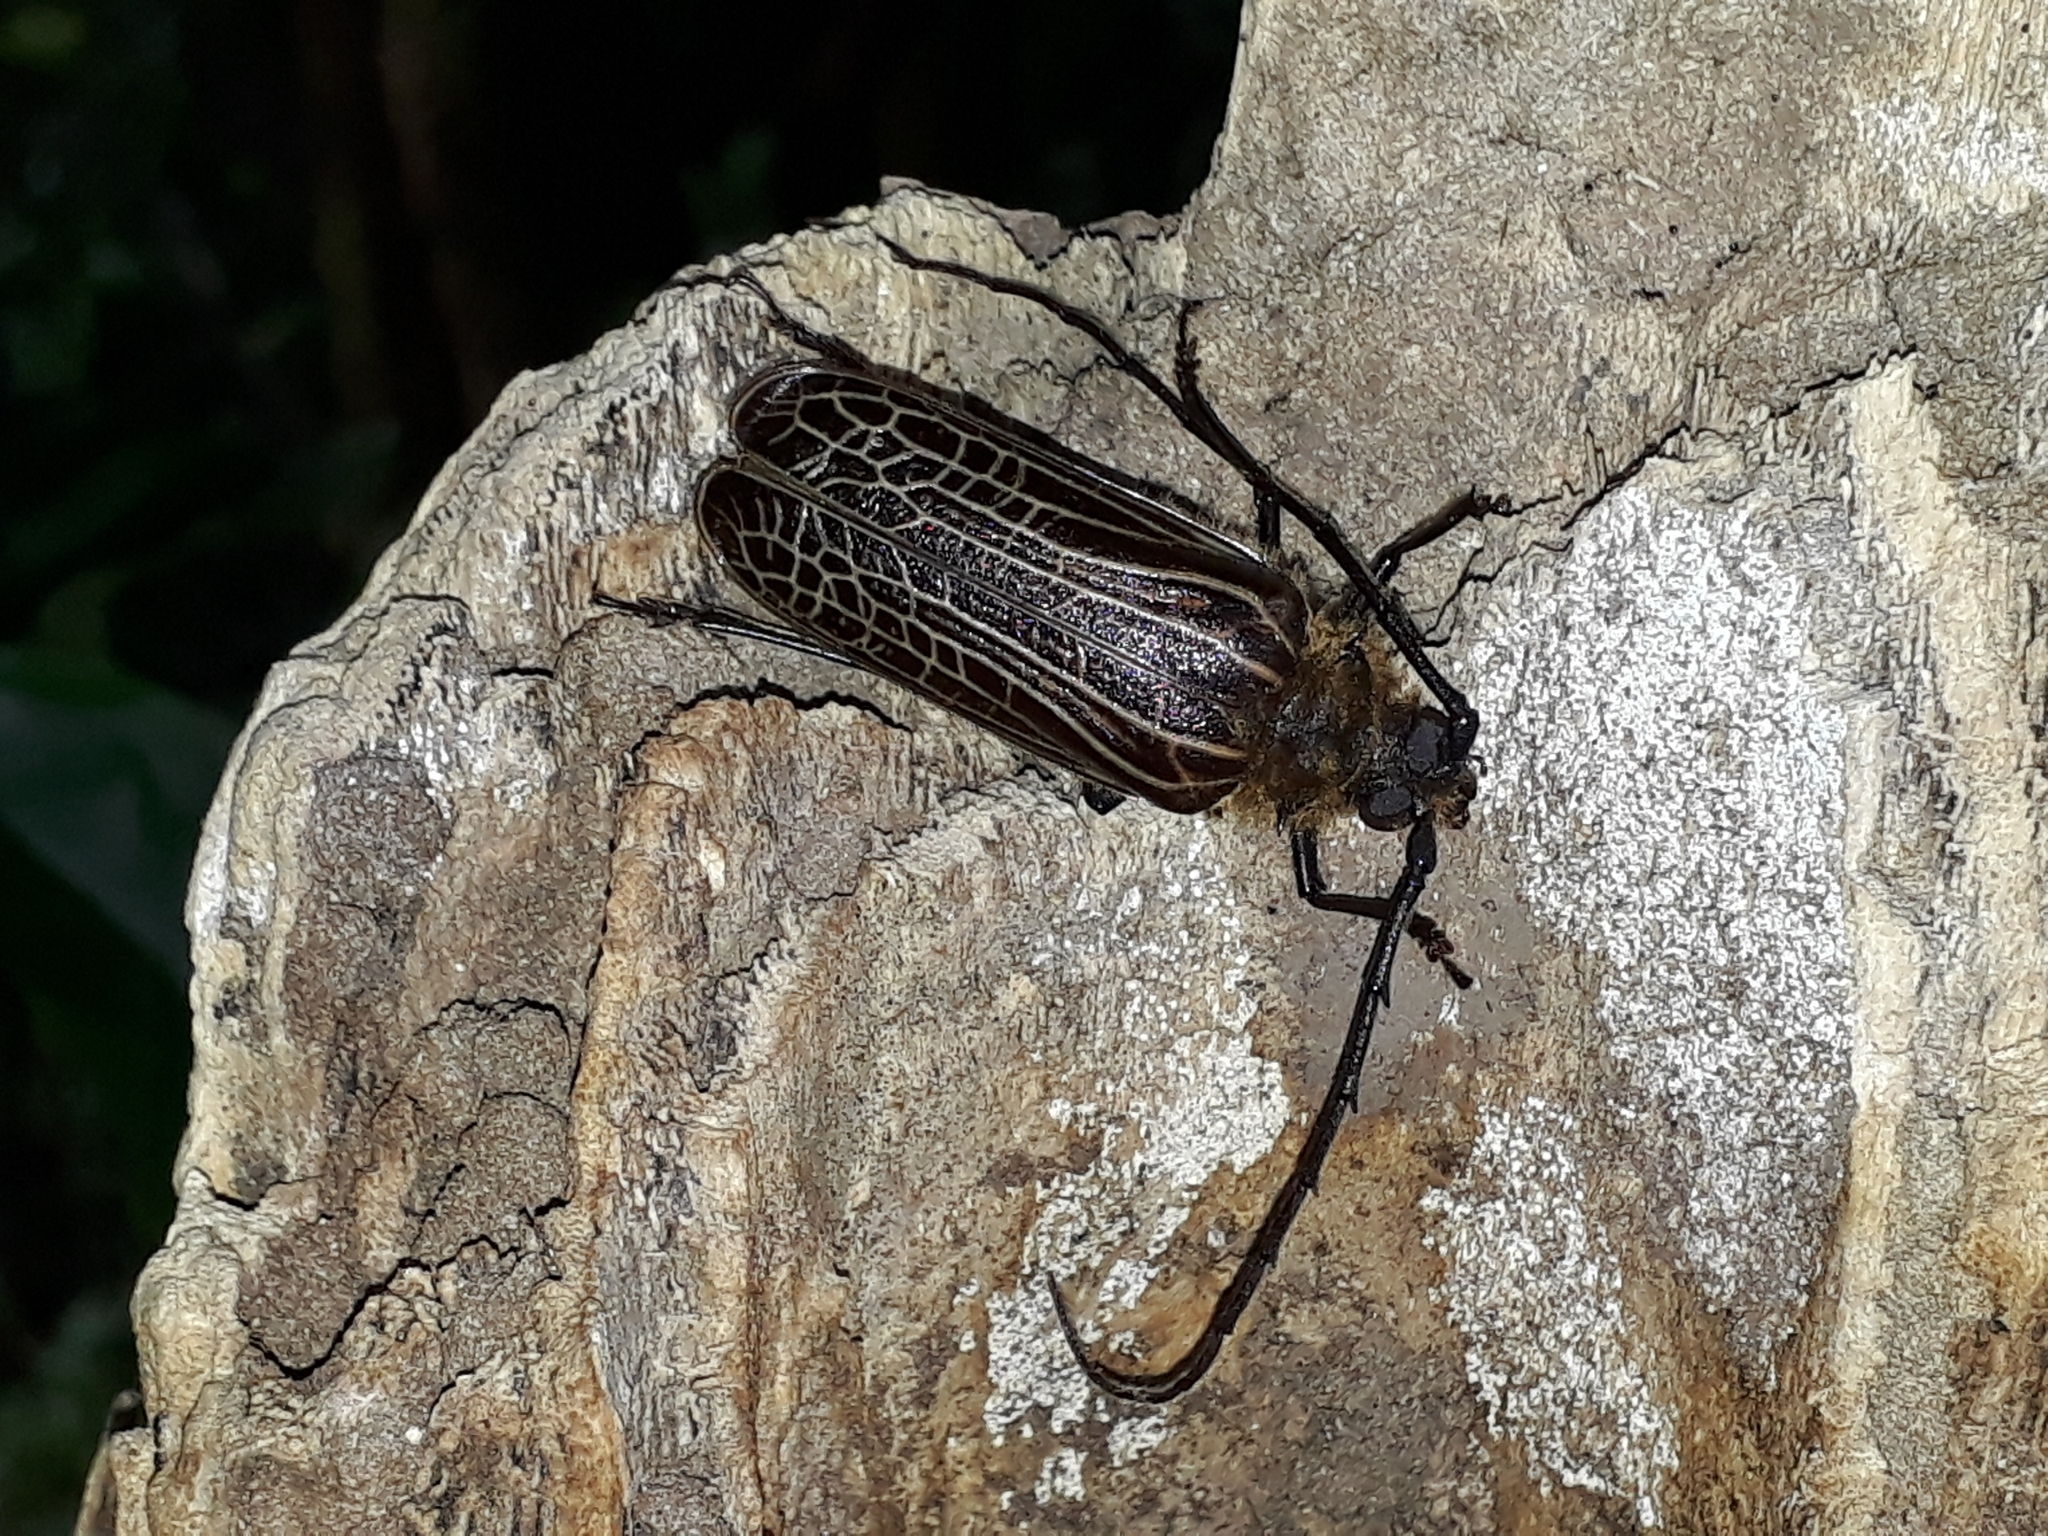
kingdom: Animalia
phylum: Arthropoda
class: Insecta
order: Coleoptera
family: Cerambycidae
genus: Prionoplus
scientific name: Prionoplus reticularis
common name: Huhu beetle
